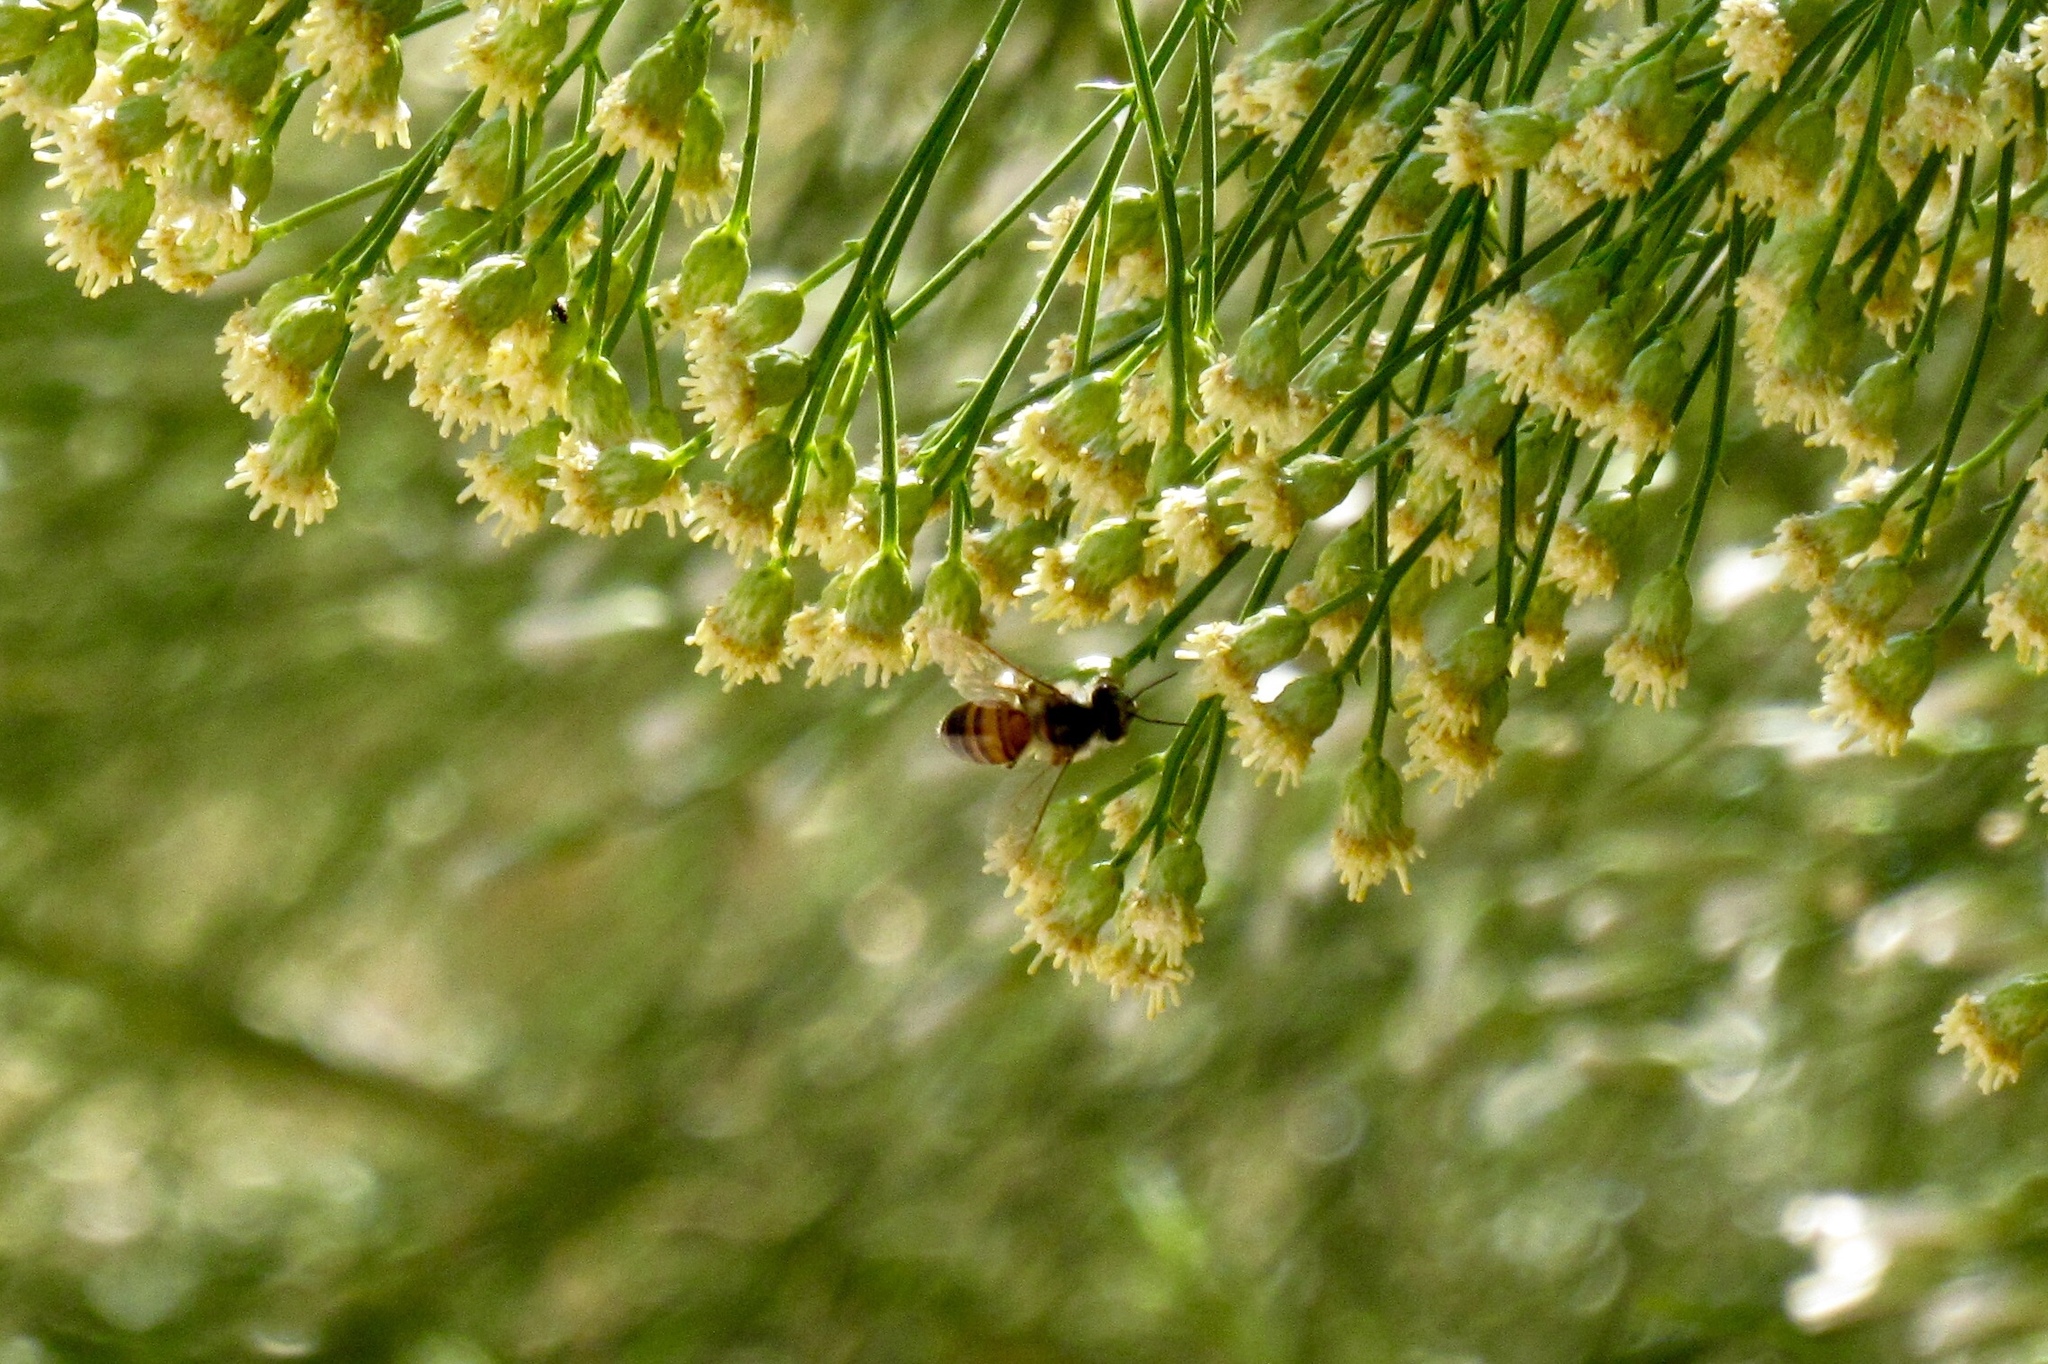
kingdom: Animalia
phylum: Arthropoda
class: Insecta
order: Hymenoptera
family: Apidae
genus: Apis
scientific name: Apis mellifera
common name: Honey bee
